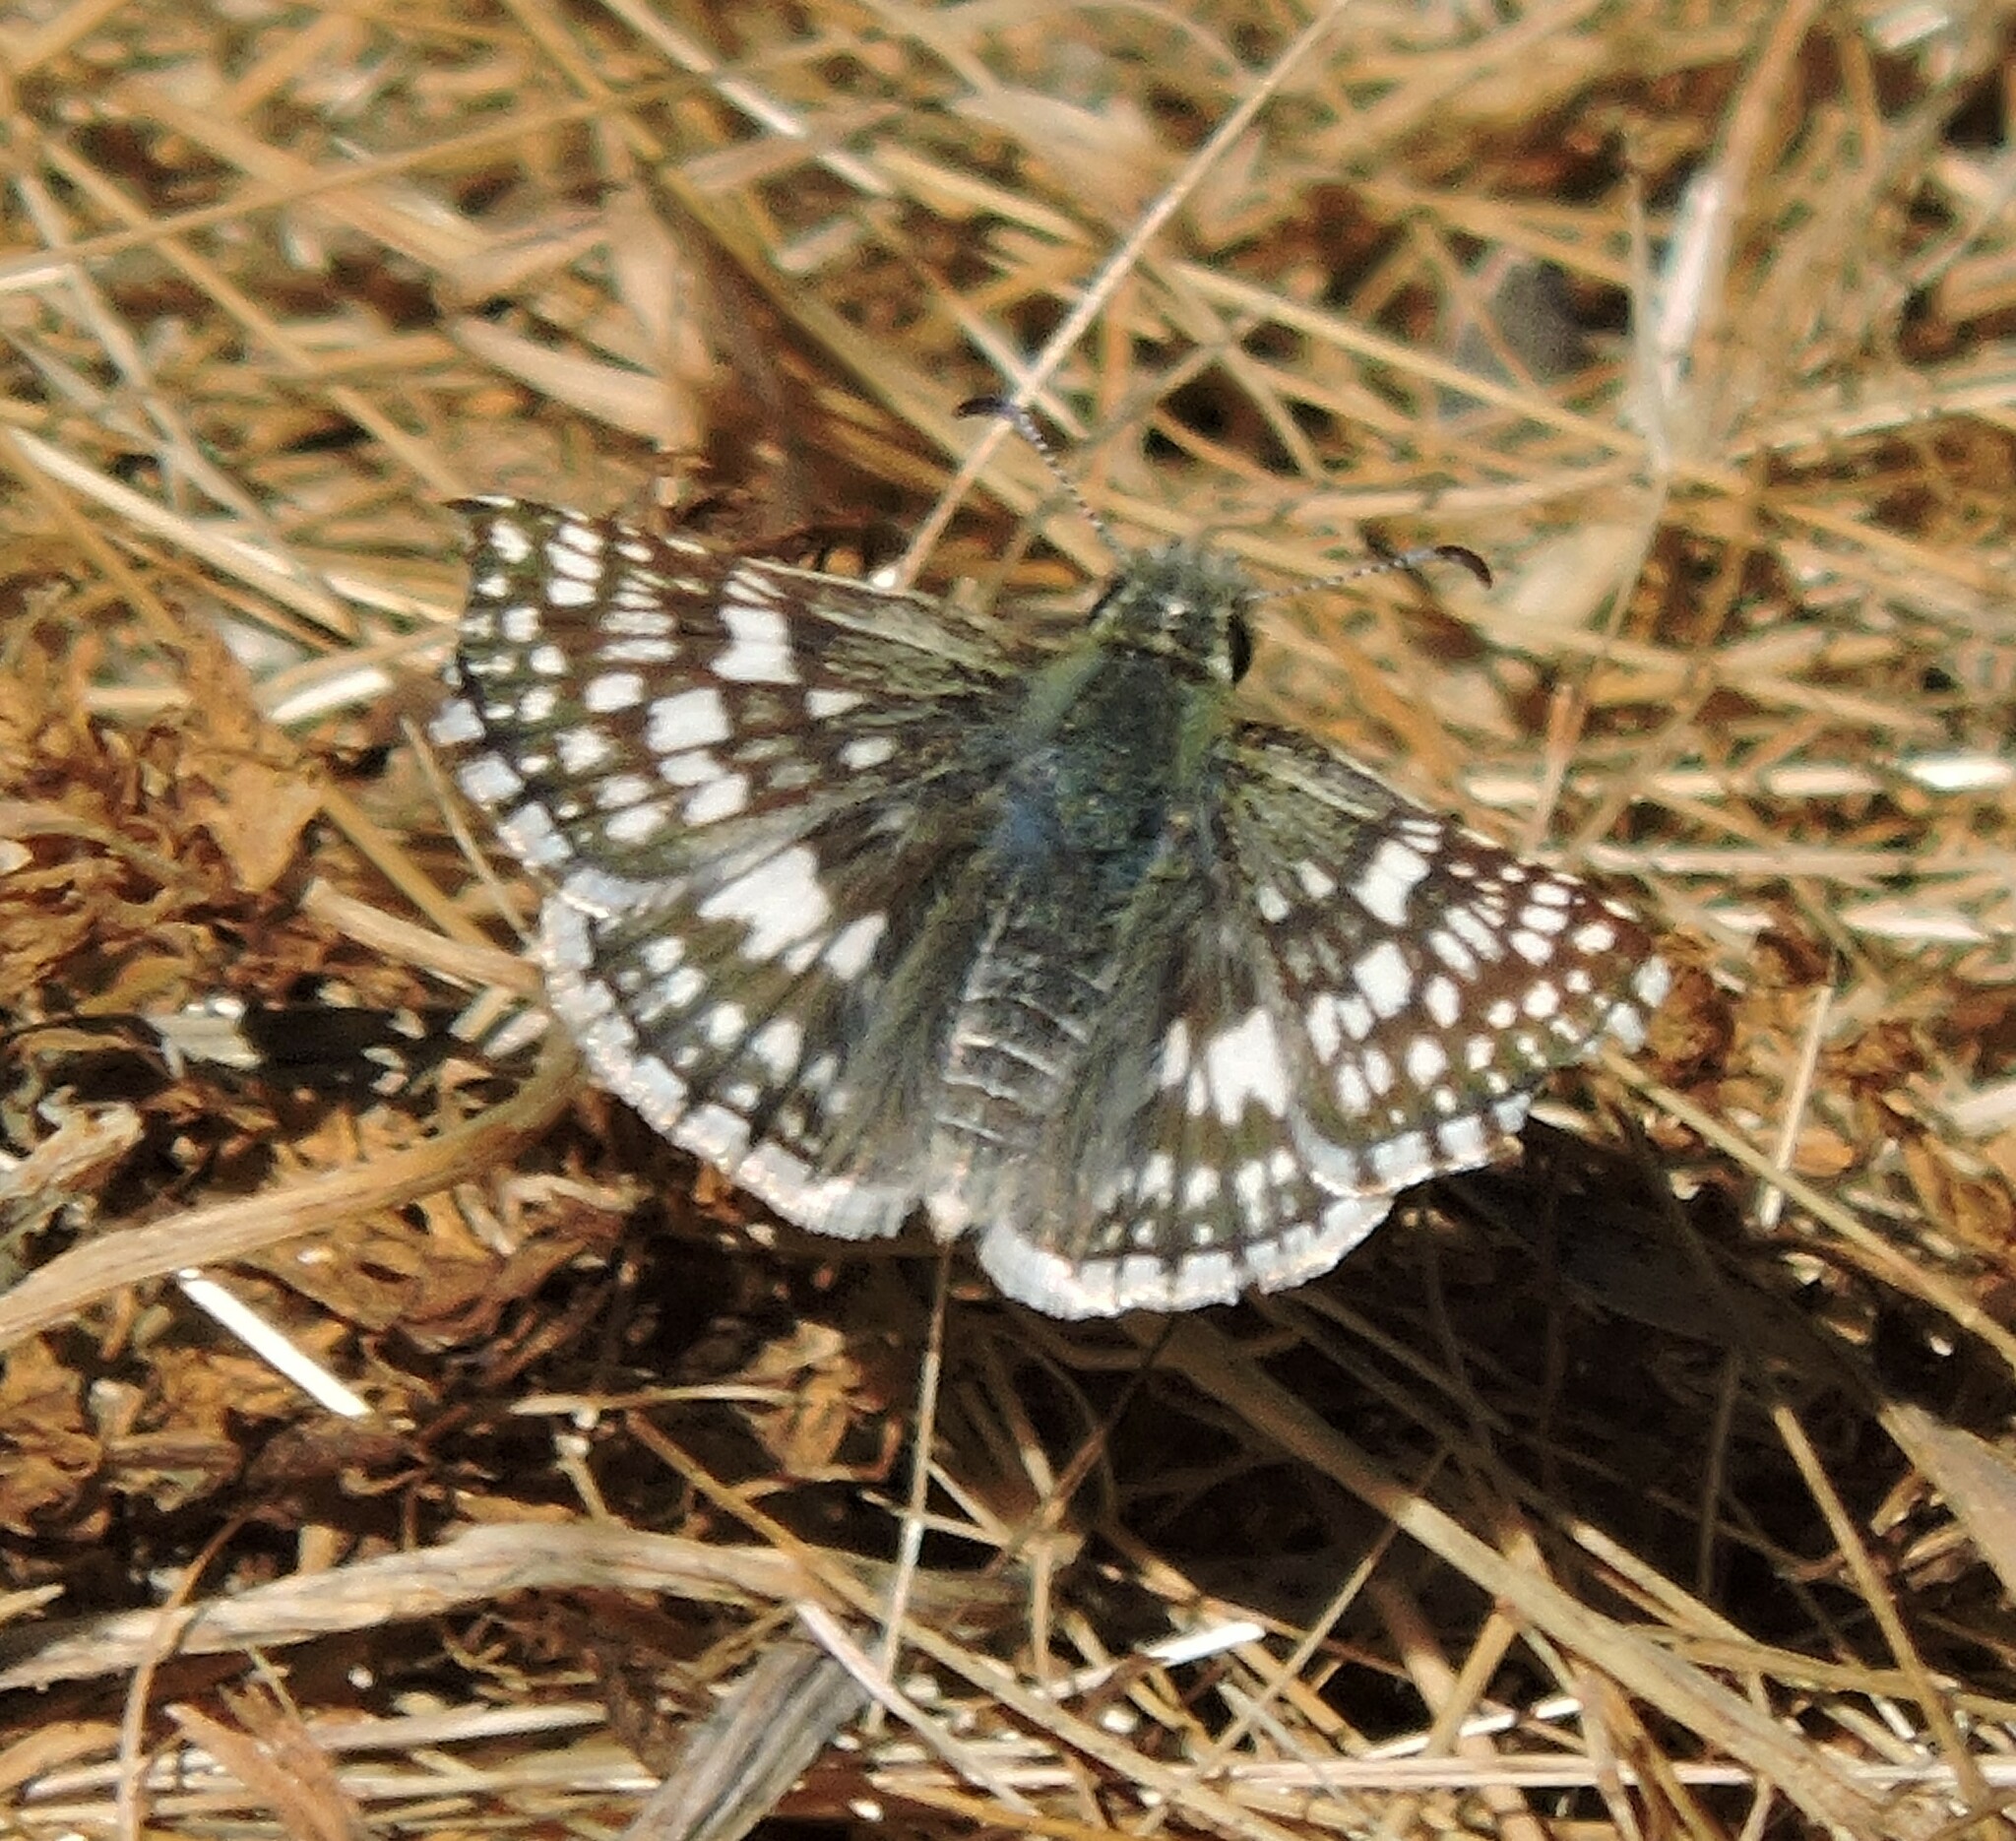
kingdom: Animalia
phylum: Arthropoda
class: Insecta
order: Lepidoptera
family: Hesperiidae
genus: Burnsius
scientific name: Burnsius communis
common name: Common checkered-skipper
